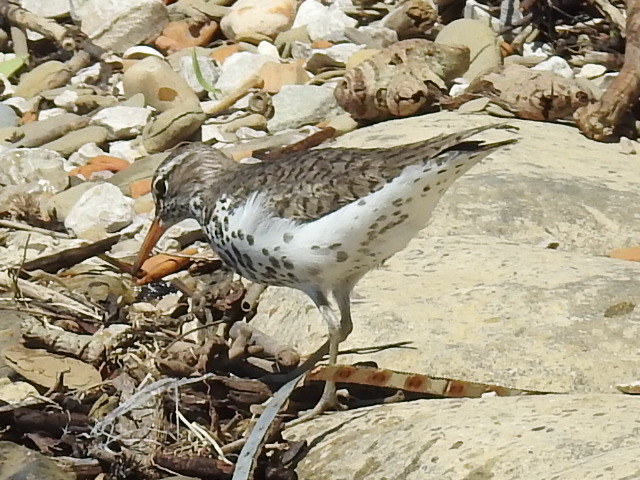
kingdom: Animalia
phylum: Chordata
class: Aves
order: Charadriiformes
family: Scolopacidae
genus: Actitis
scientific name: Actitis macularius
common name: Spotted sandpiper
